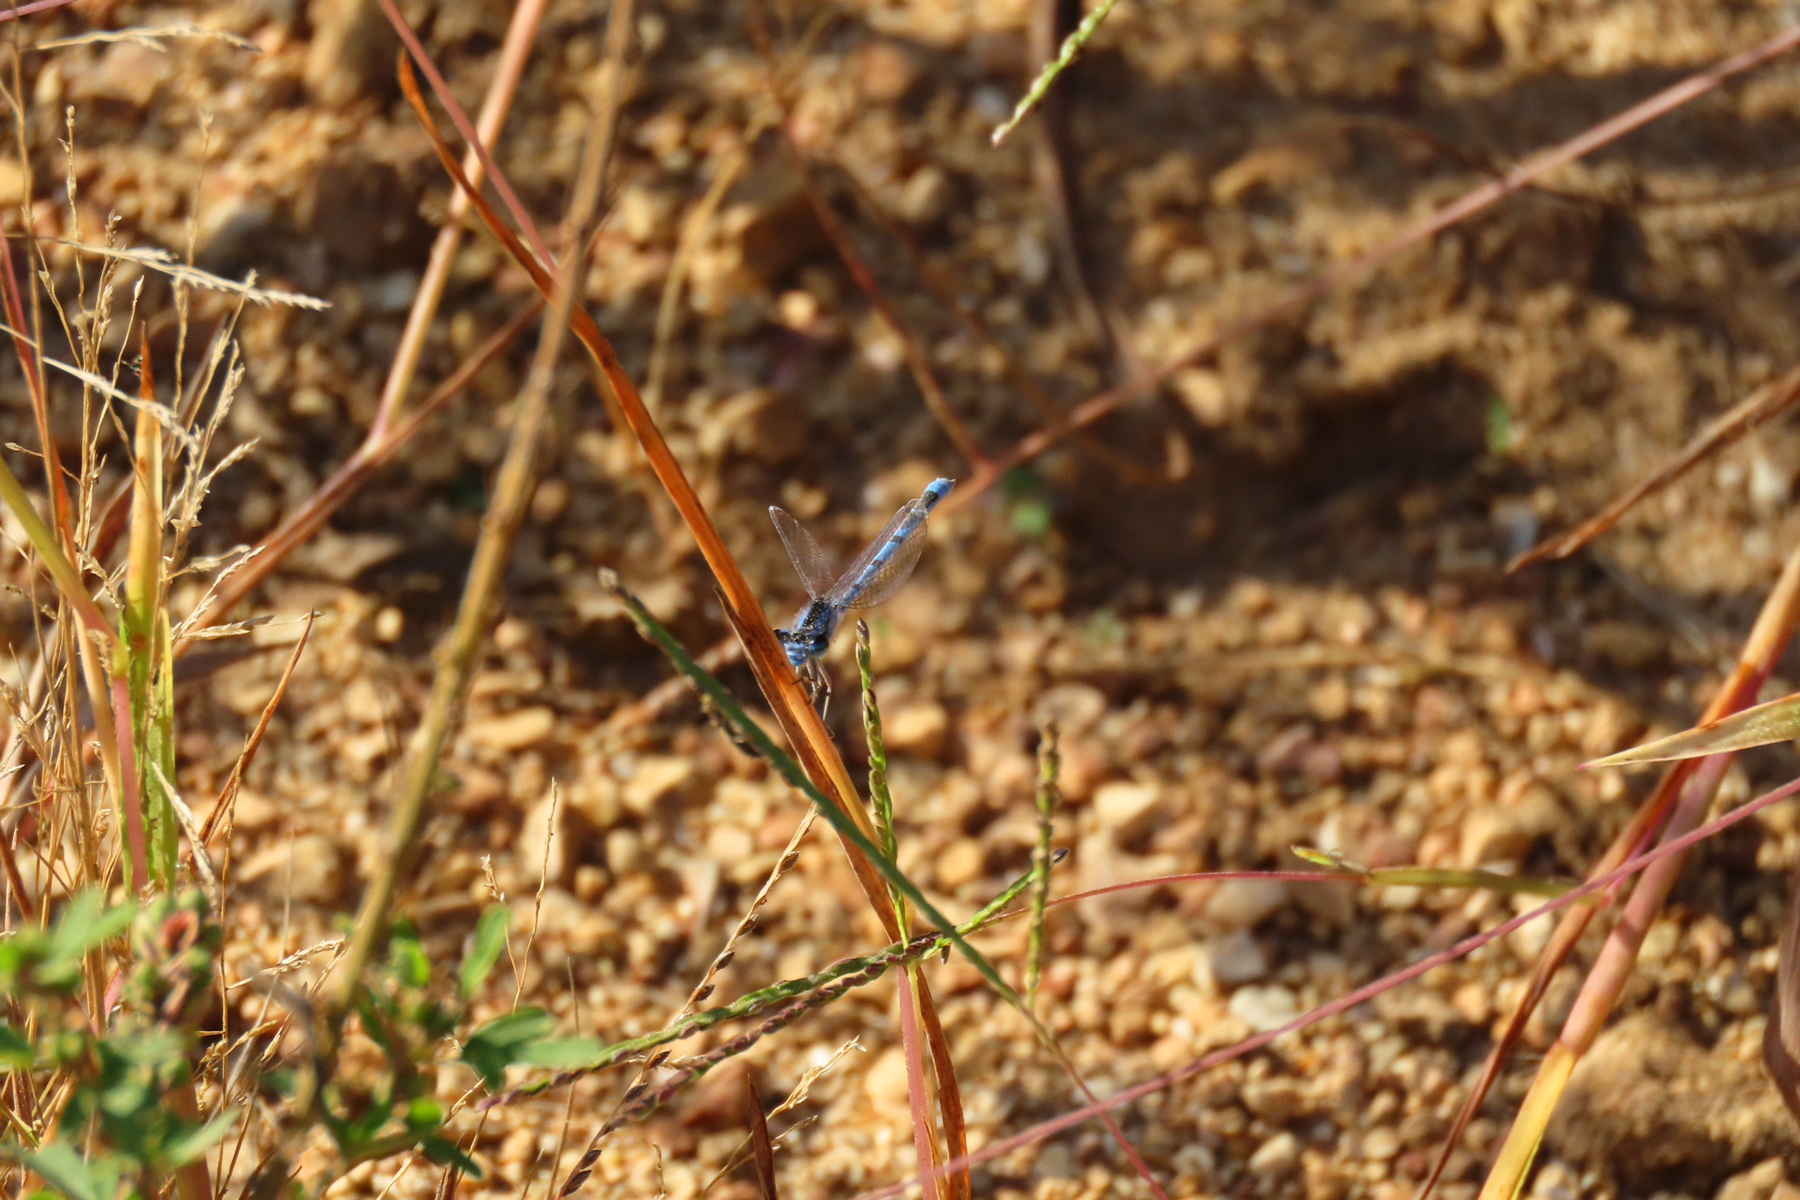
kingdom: Animalia
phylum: Arthropoda
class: Insecta
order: Odonata
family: Coenagrionidae
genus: Enallagma
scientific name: Enallagma civile
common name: Damselfly
